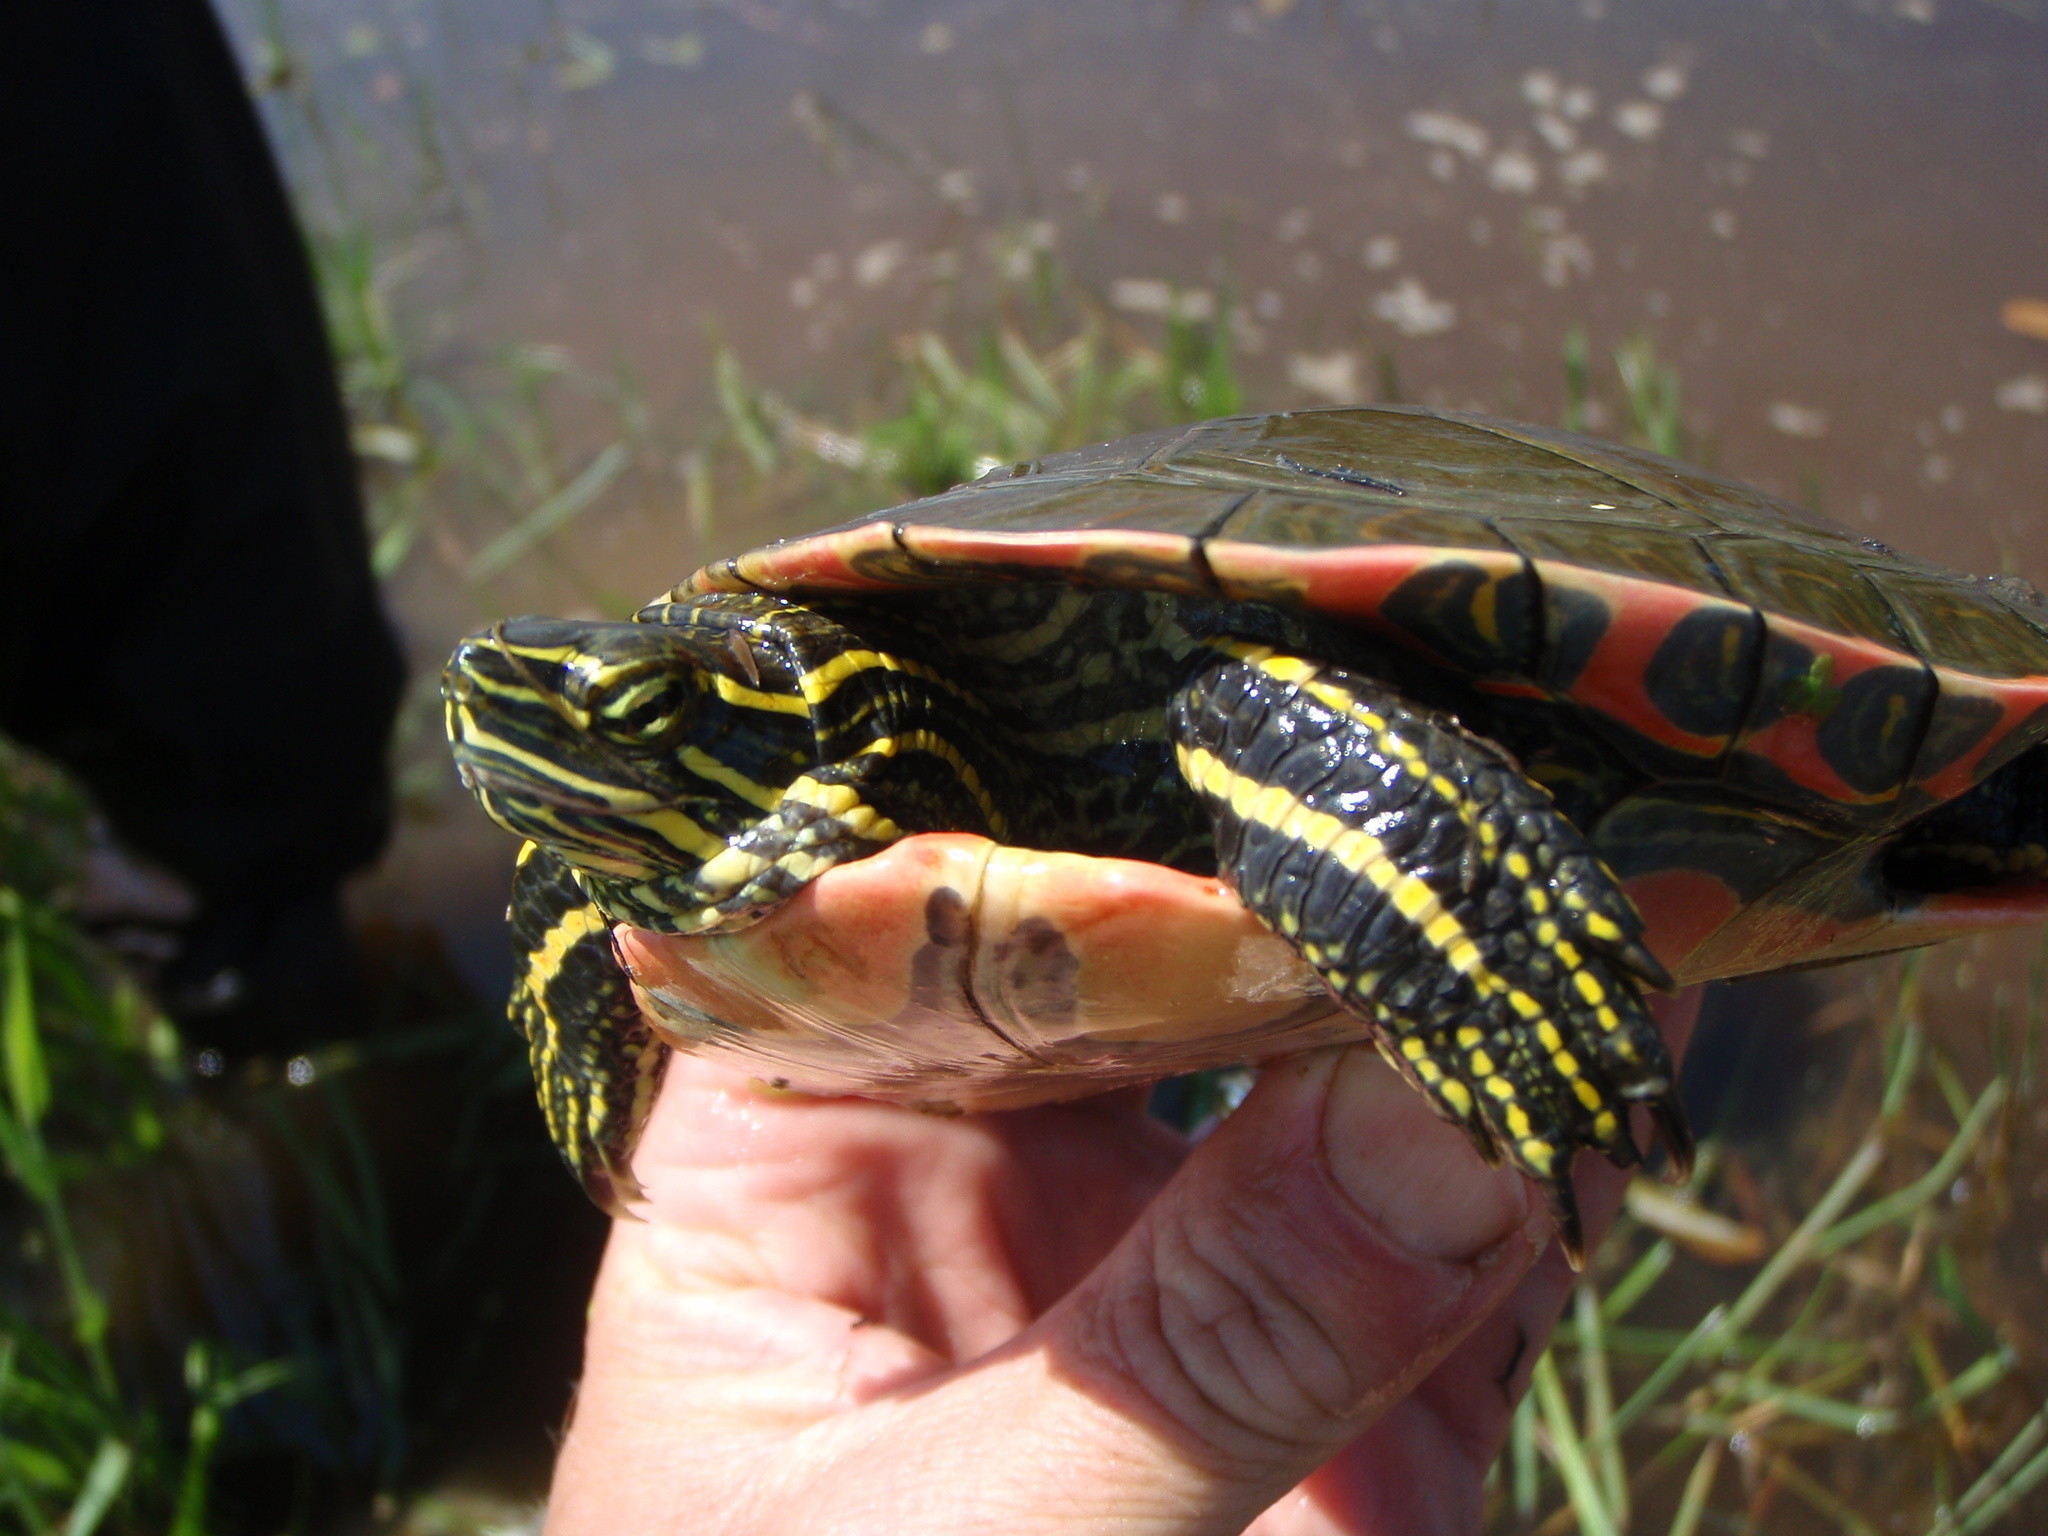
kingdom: Animalia
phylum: Chordata
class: Testudines
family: Emydidae
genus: Chrysemys
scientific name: Chrysemys picta
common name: Painted turtle
